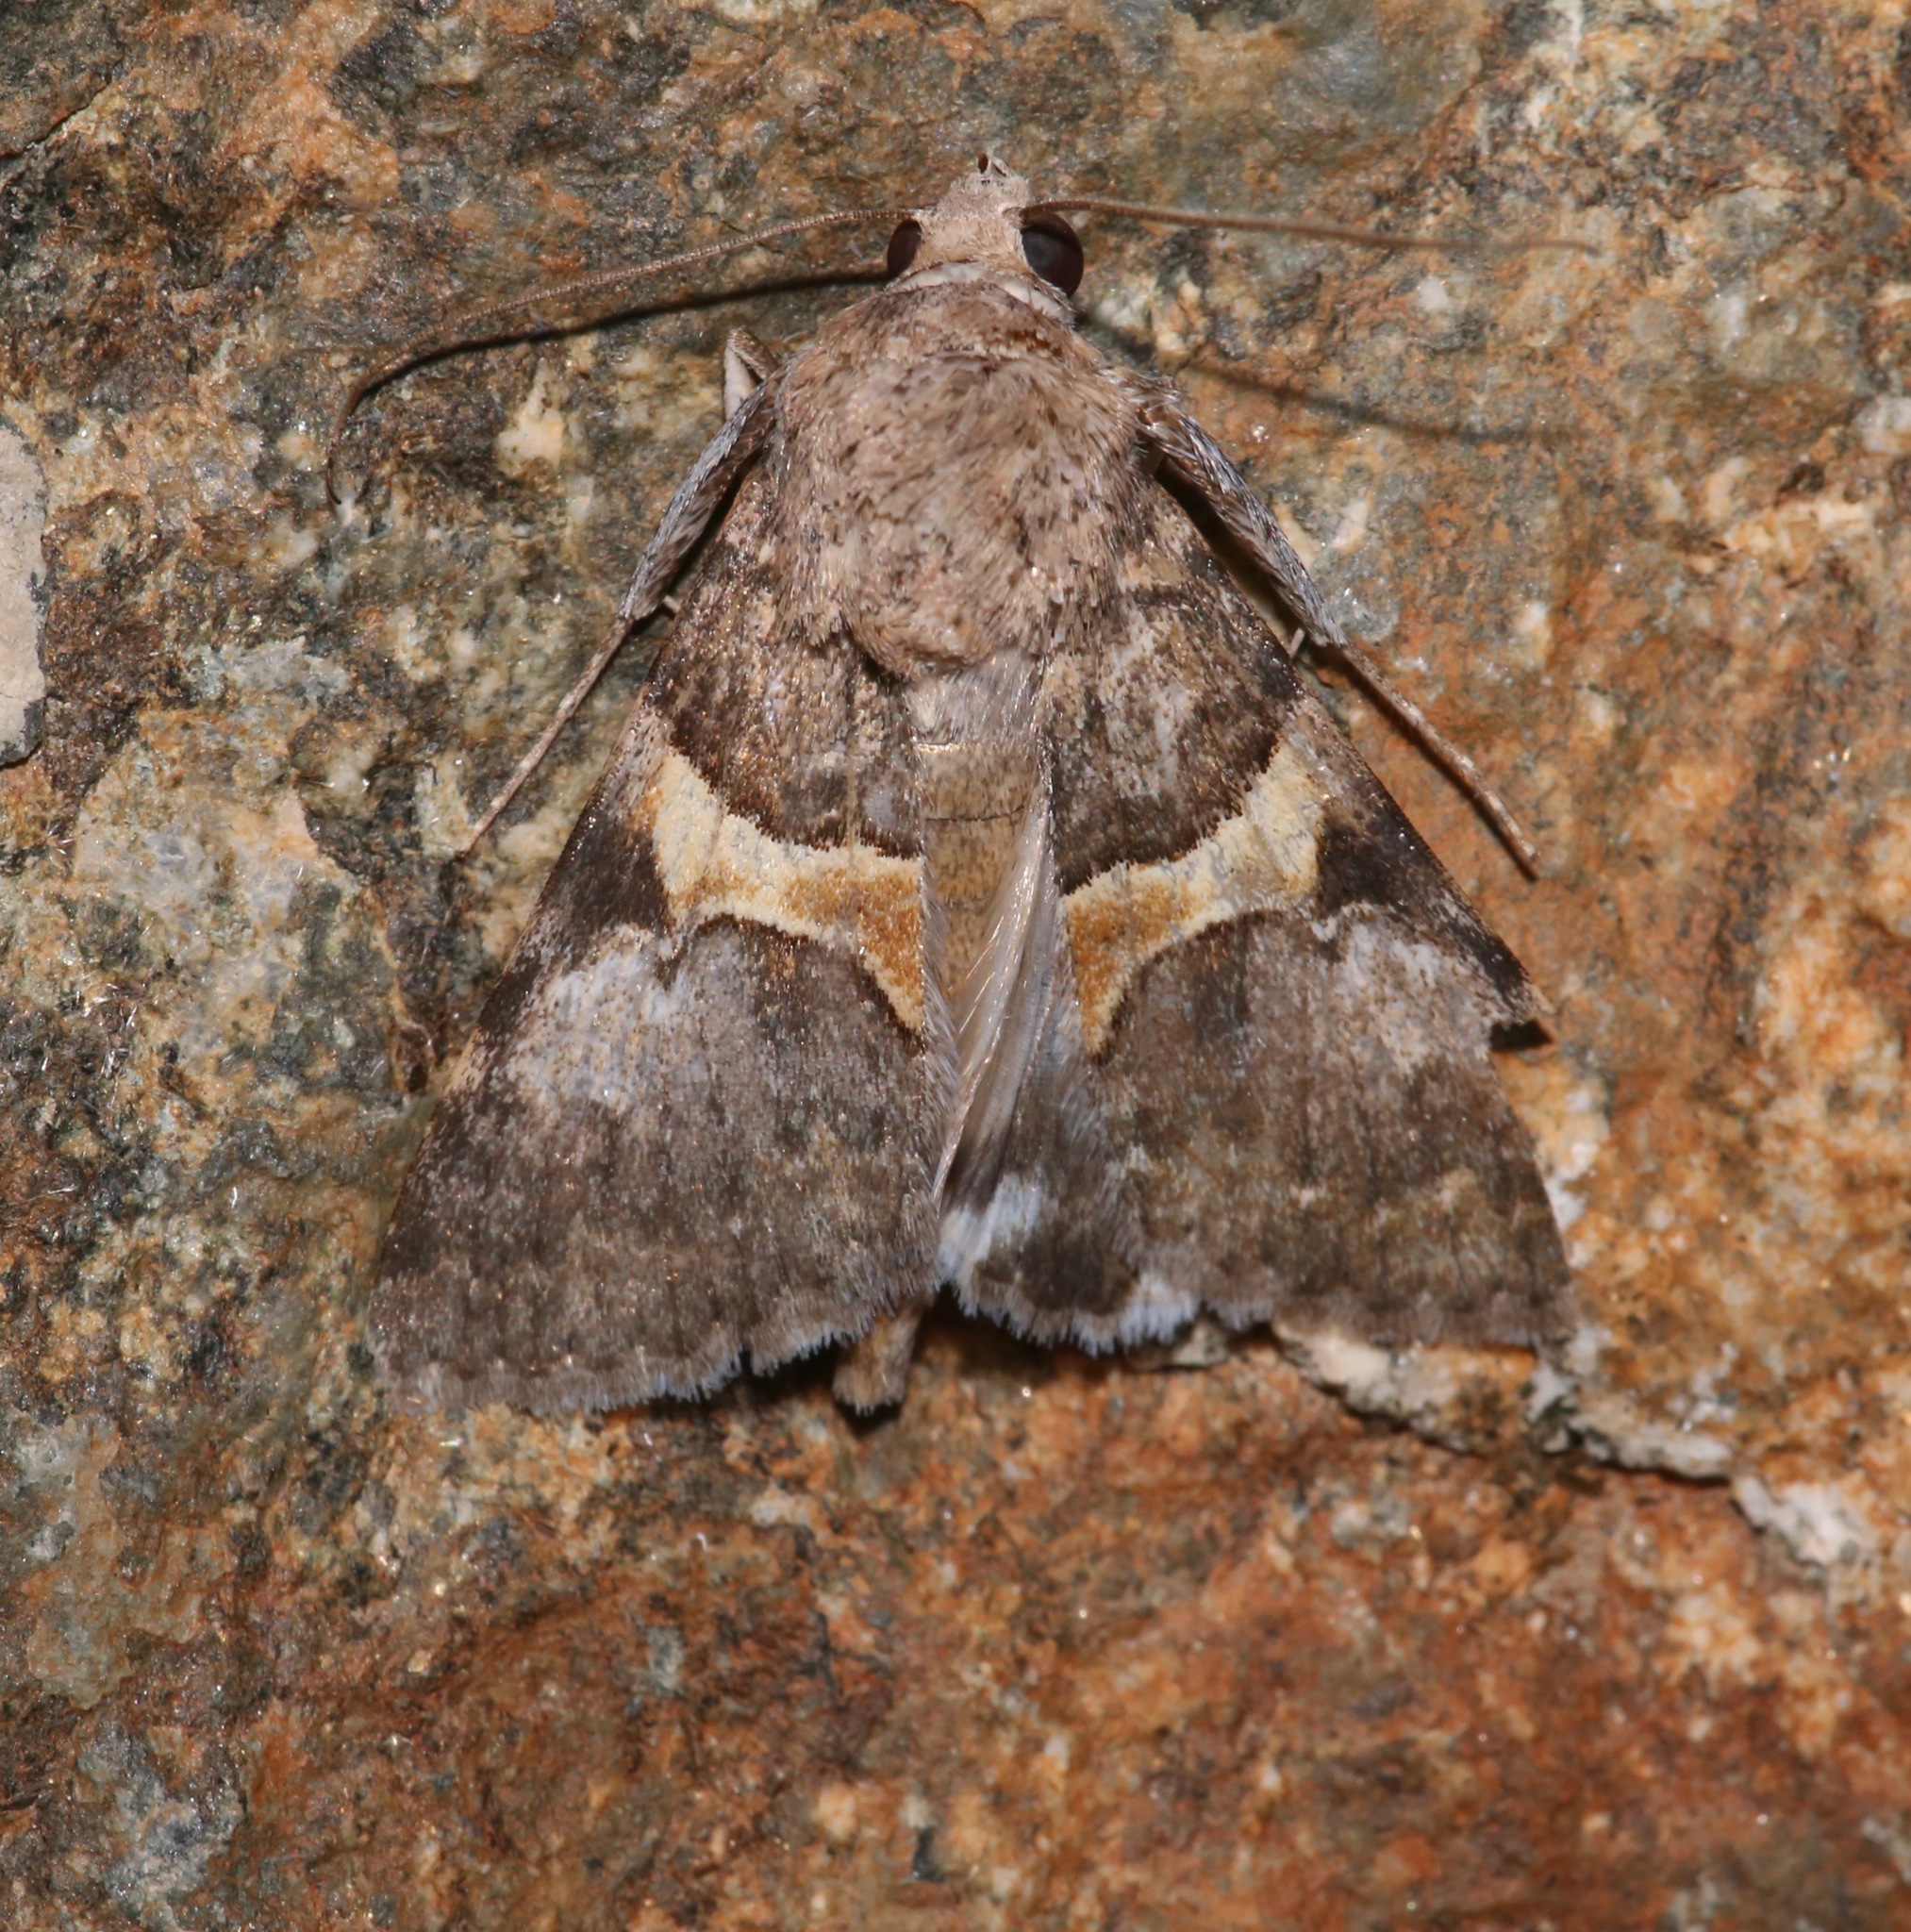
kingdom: Animalia
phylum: Arthropoda
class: Insecta
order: Lepidoptera
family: Erebidae
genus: Melipotis
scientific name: Melipotis jucunda
